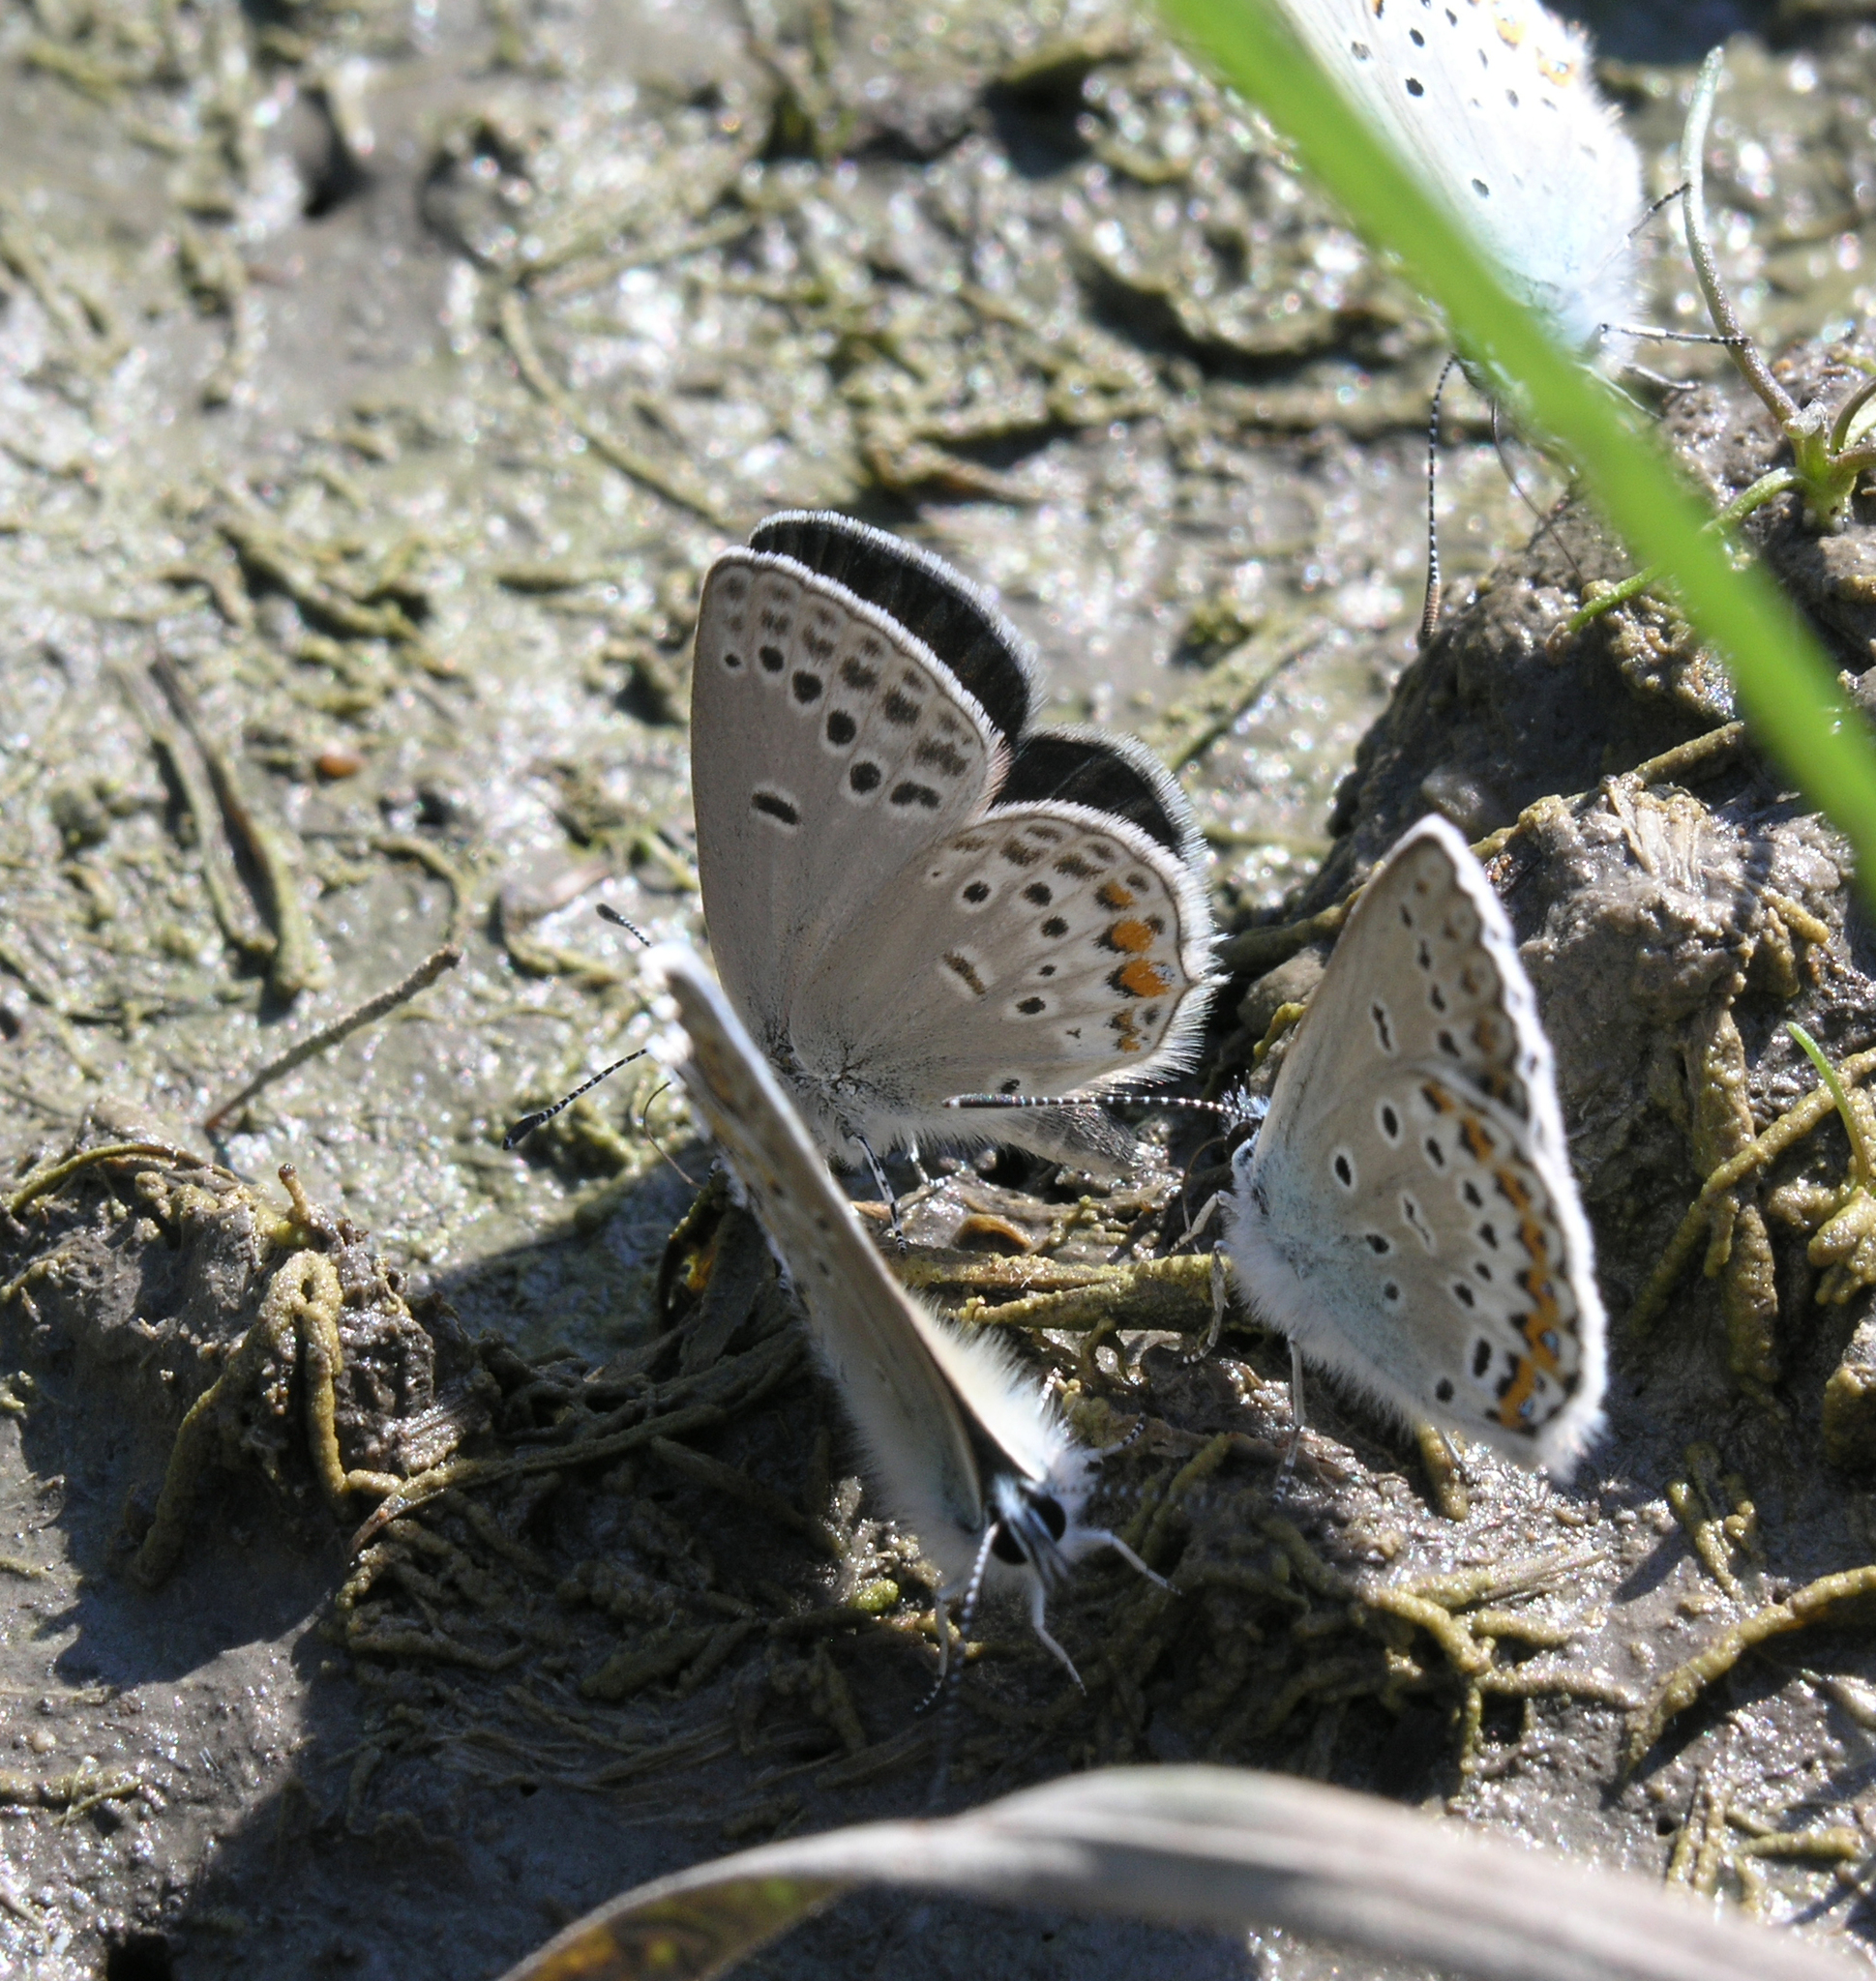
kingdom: Animalia
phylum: Arthropoda
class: Insecta
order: Lepidoptera
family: Lycaenidae
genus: Tongeia
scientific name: Tongeia fischeri
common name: Fischer's blue
